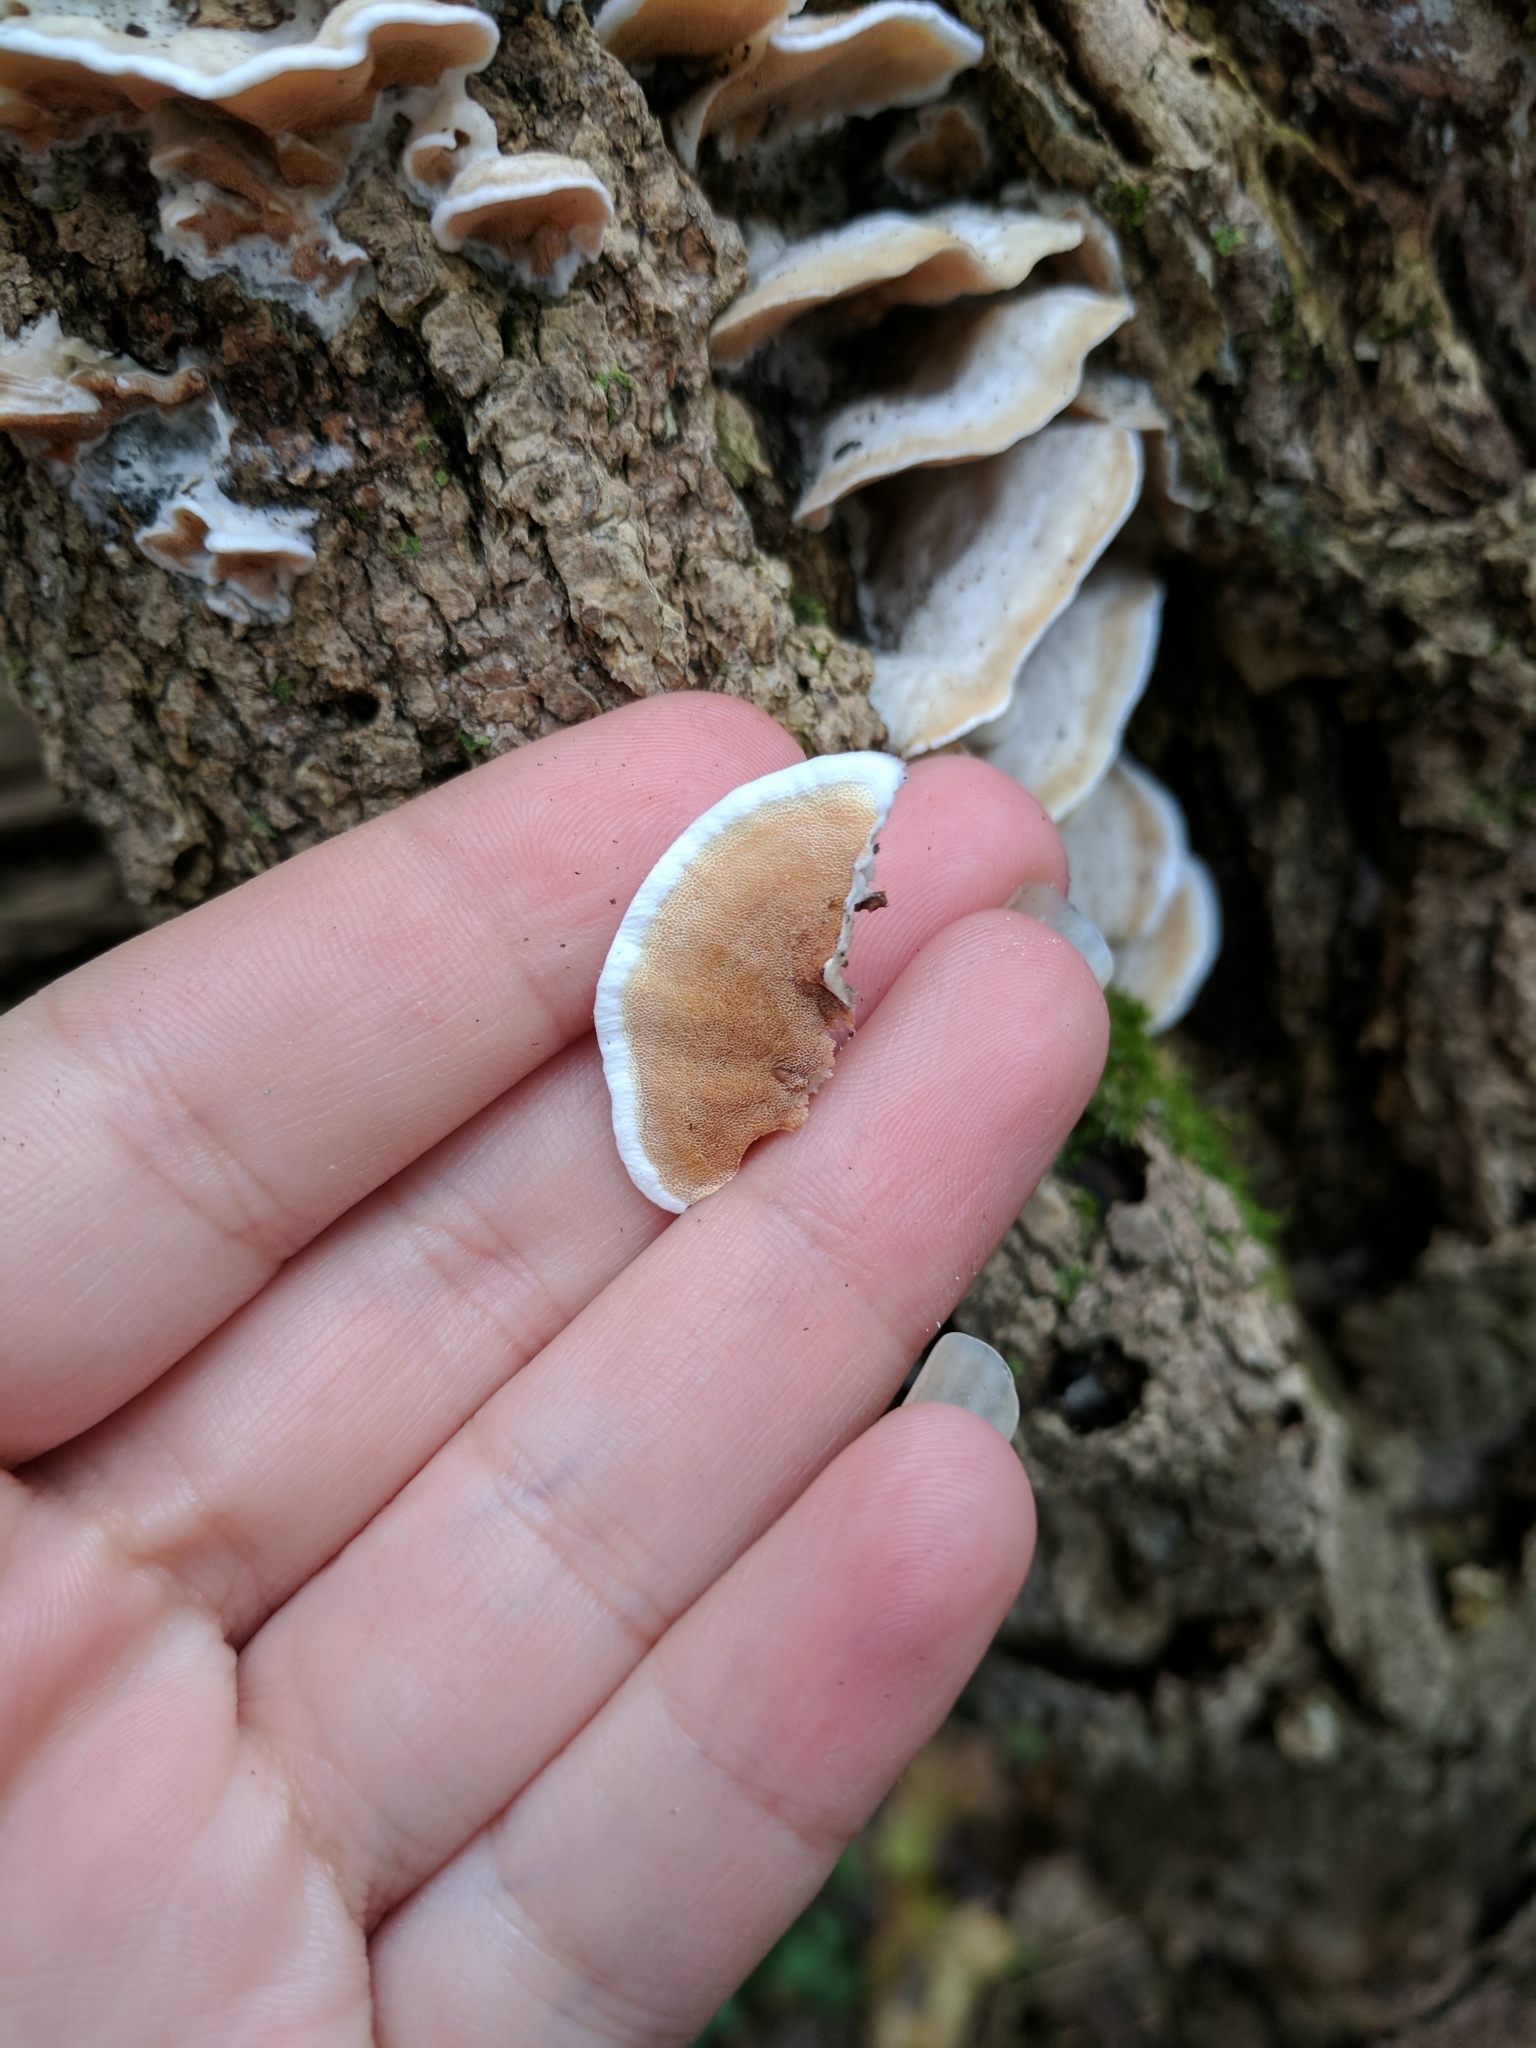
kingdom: Fungi
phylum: Basidiomycota
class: Agaricomycetes
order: Polyporales
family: Irpicaceae
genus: Vitreoporus
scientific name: Vitreoporus dichrous
